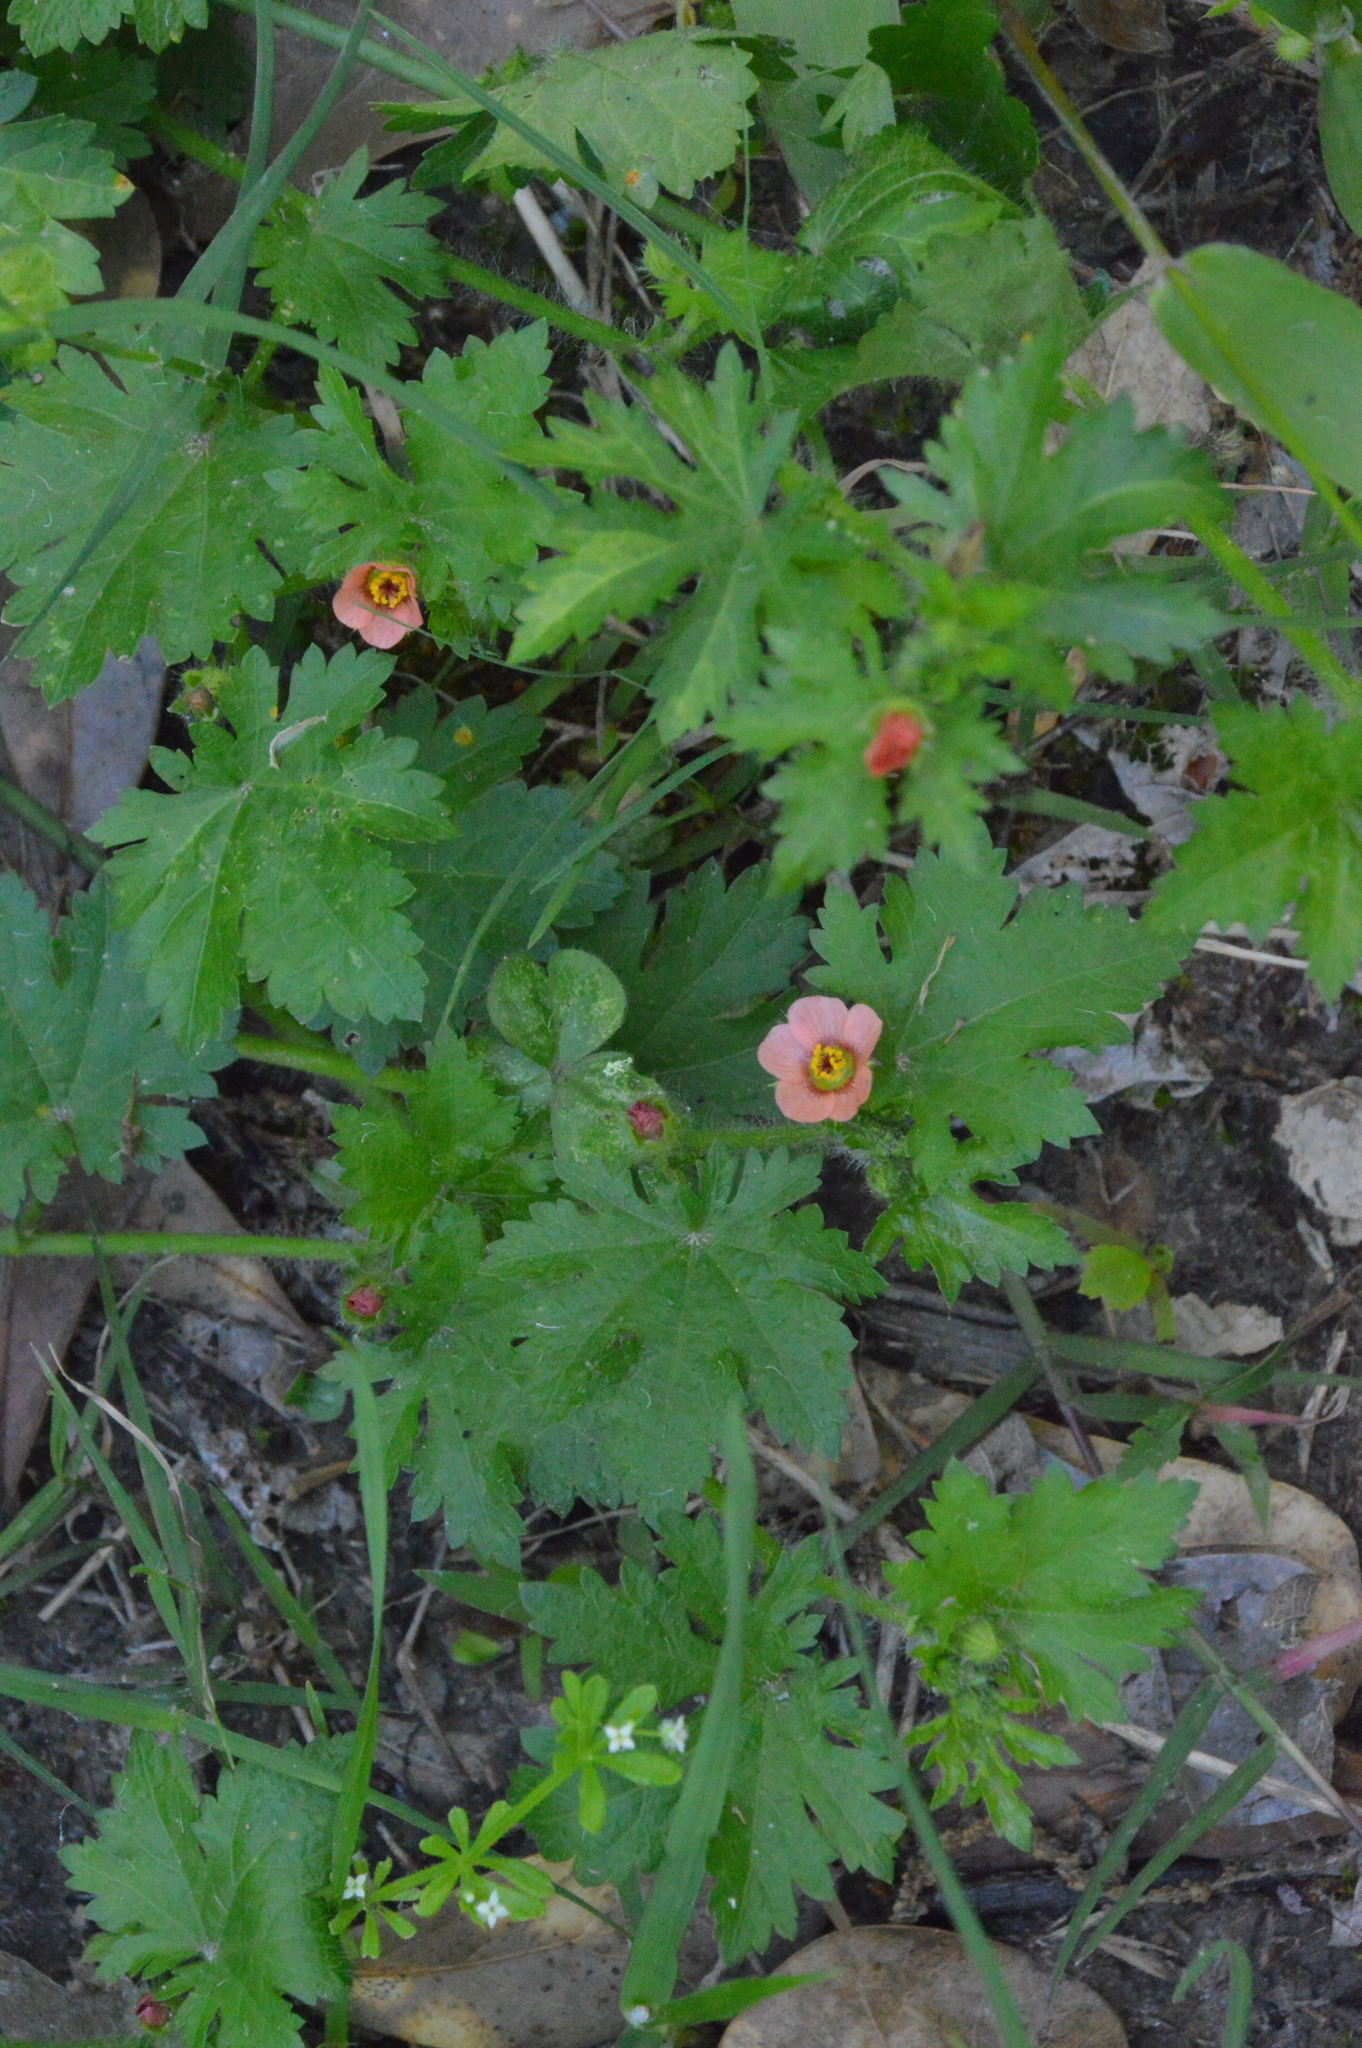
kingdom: Plantae
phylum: Tracheophyta
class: Magnoliopsida
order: Malvales
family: Malvaceae
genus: Modiola
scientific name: Modiola caroliniana
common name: Carolina bristlemallow
